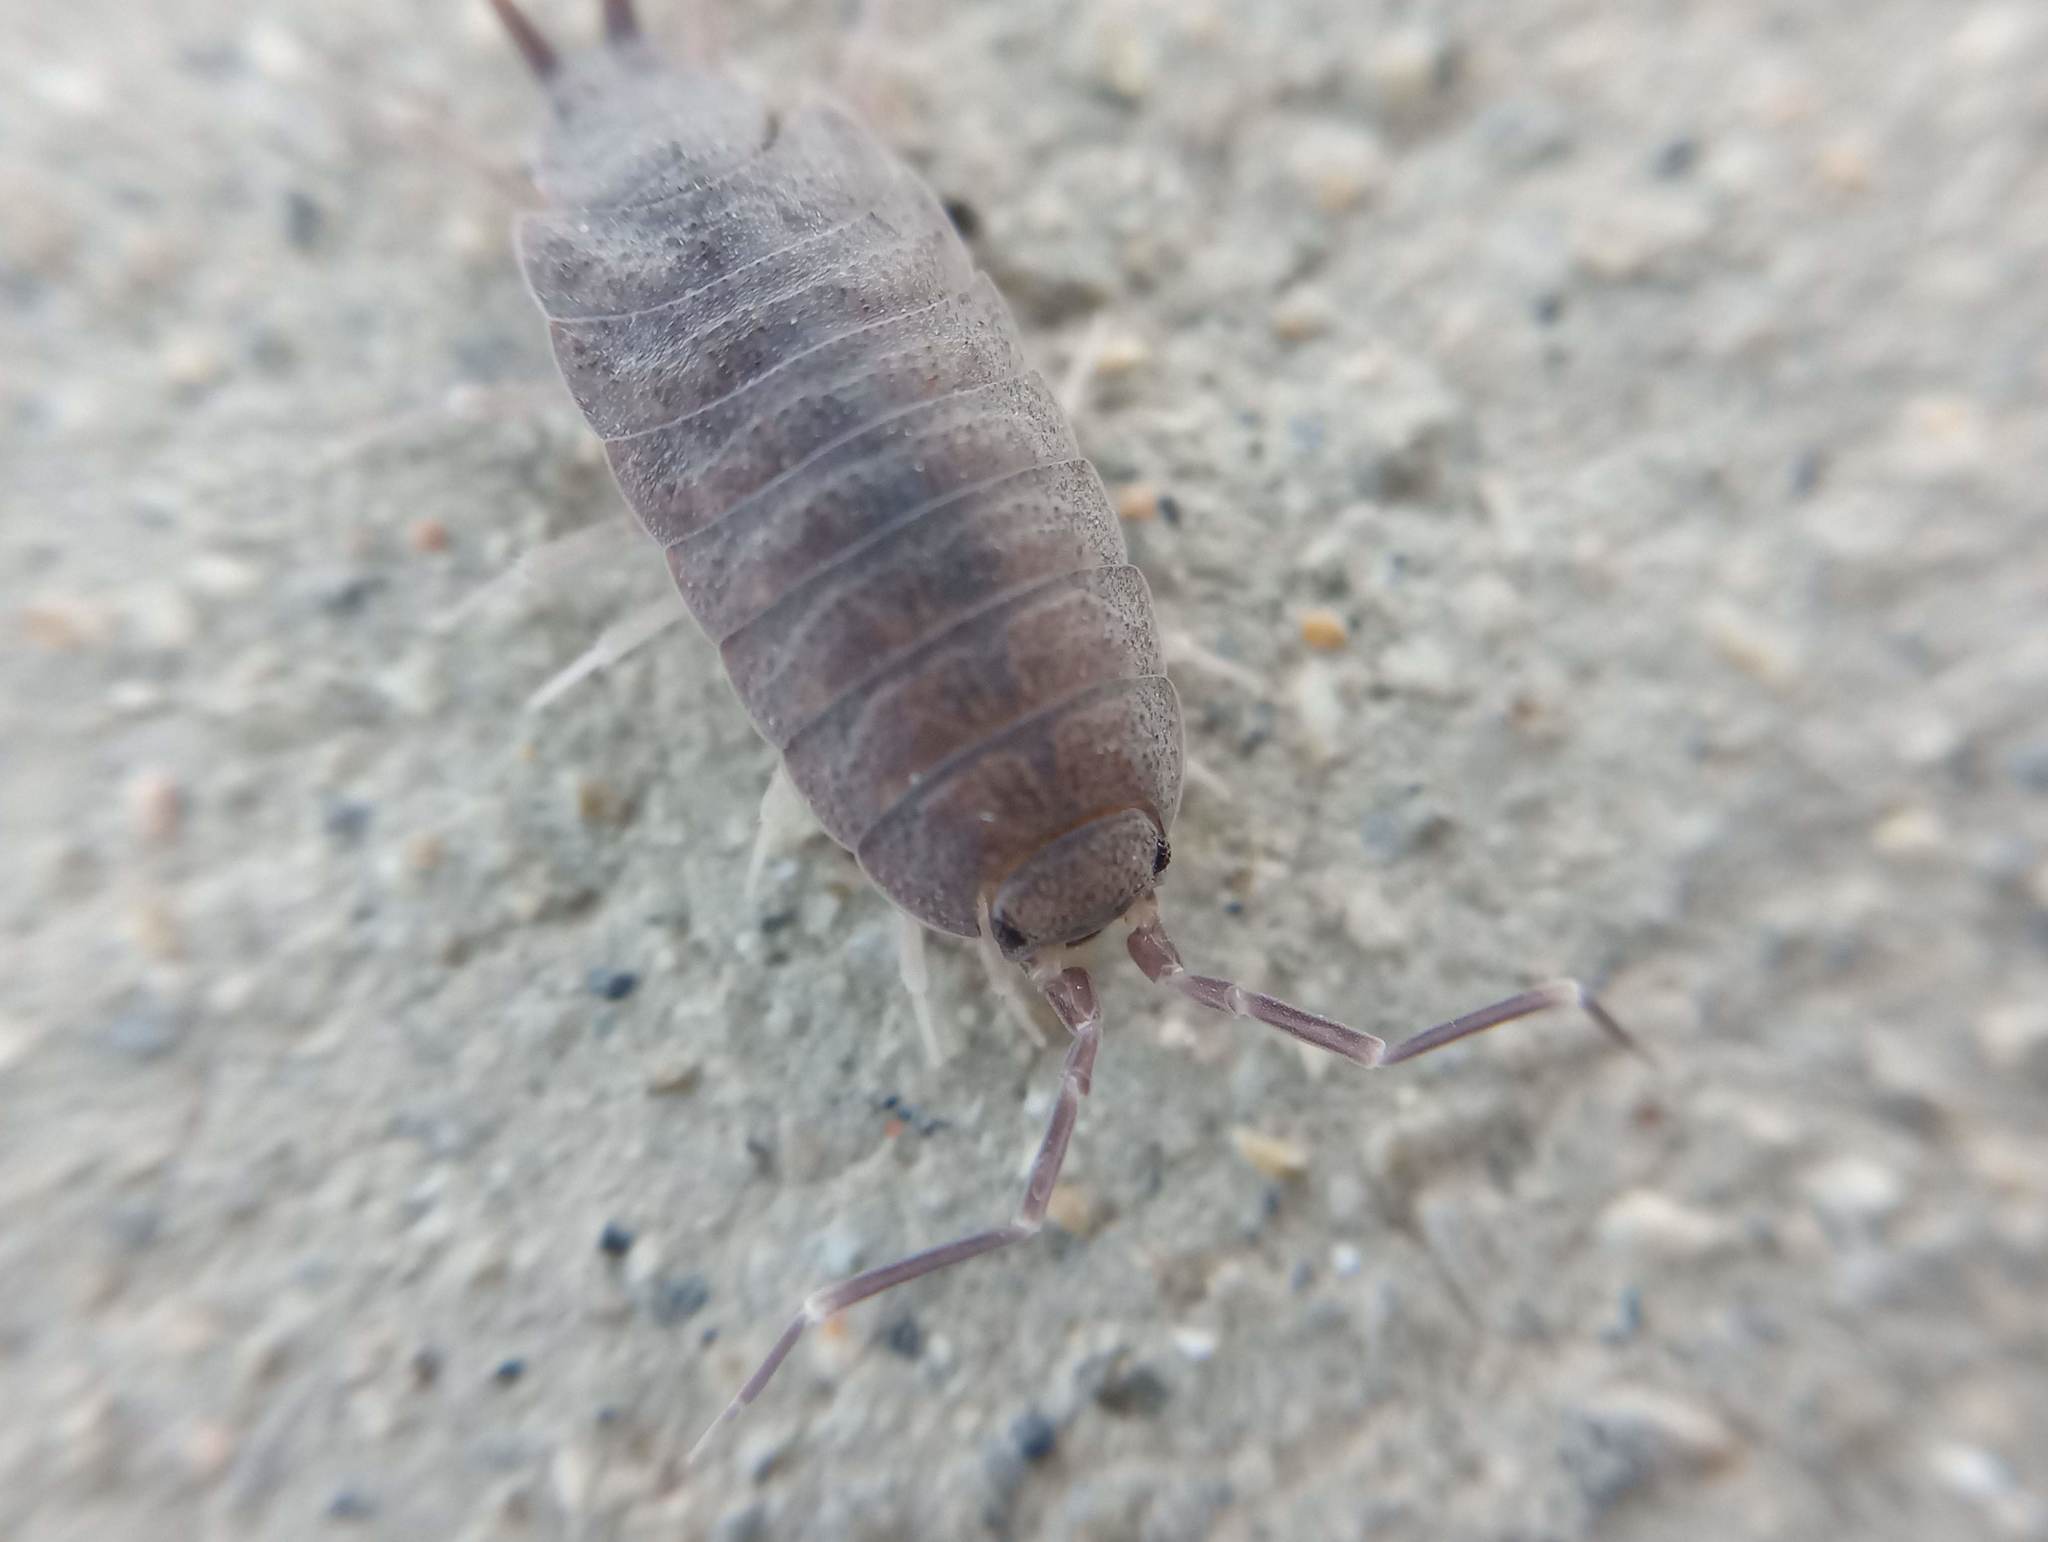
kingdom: Animalia
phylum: Arthropoda
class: Malacostraca
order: Isopoda
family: Porcellionidae
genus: Porcellionides
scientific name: Porcellionides
